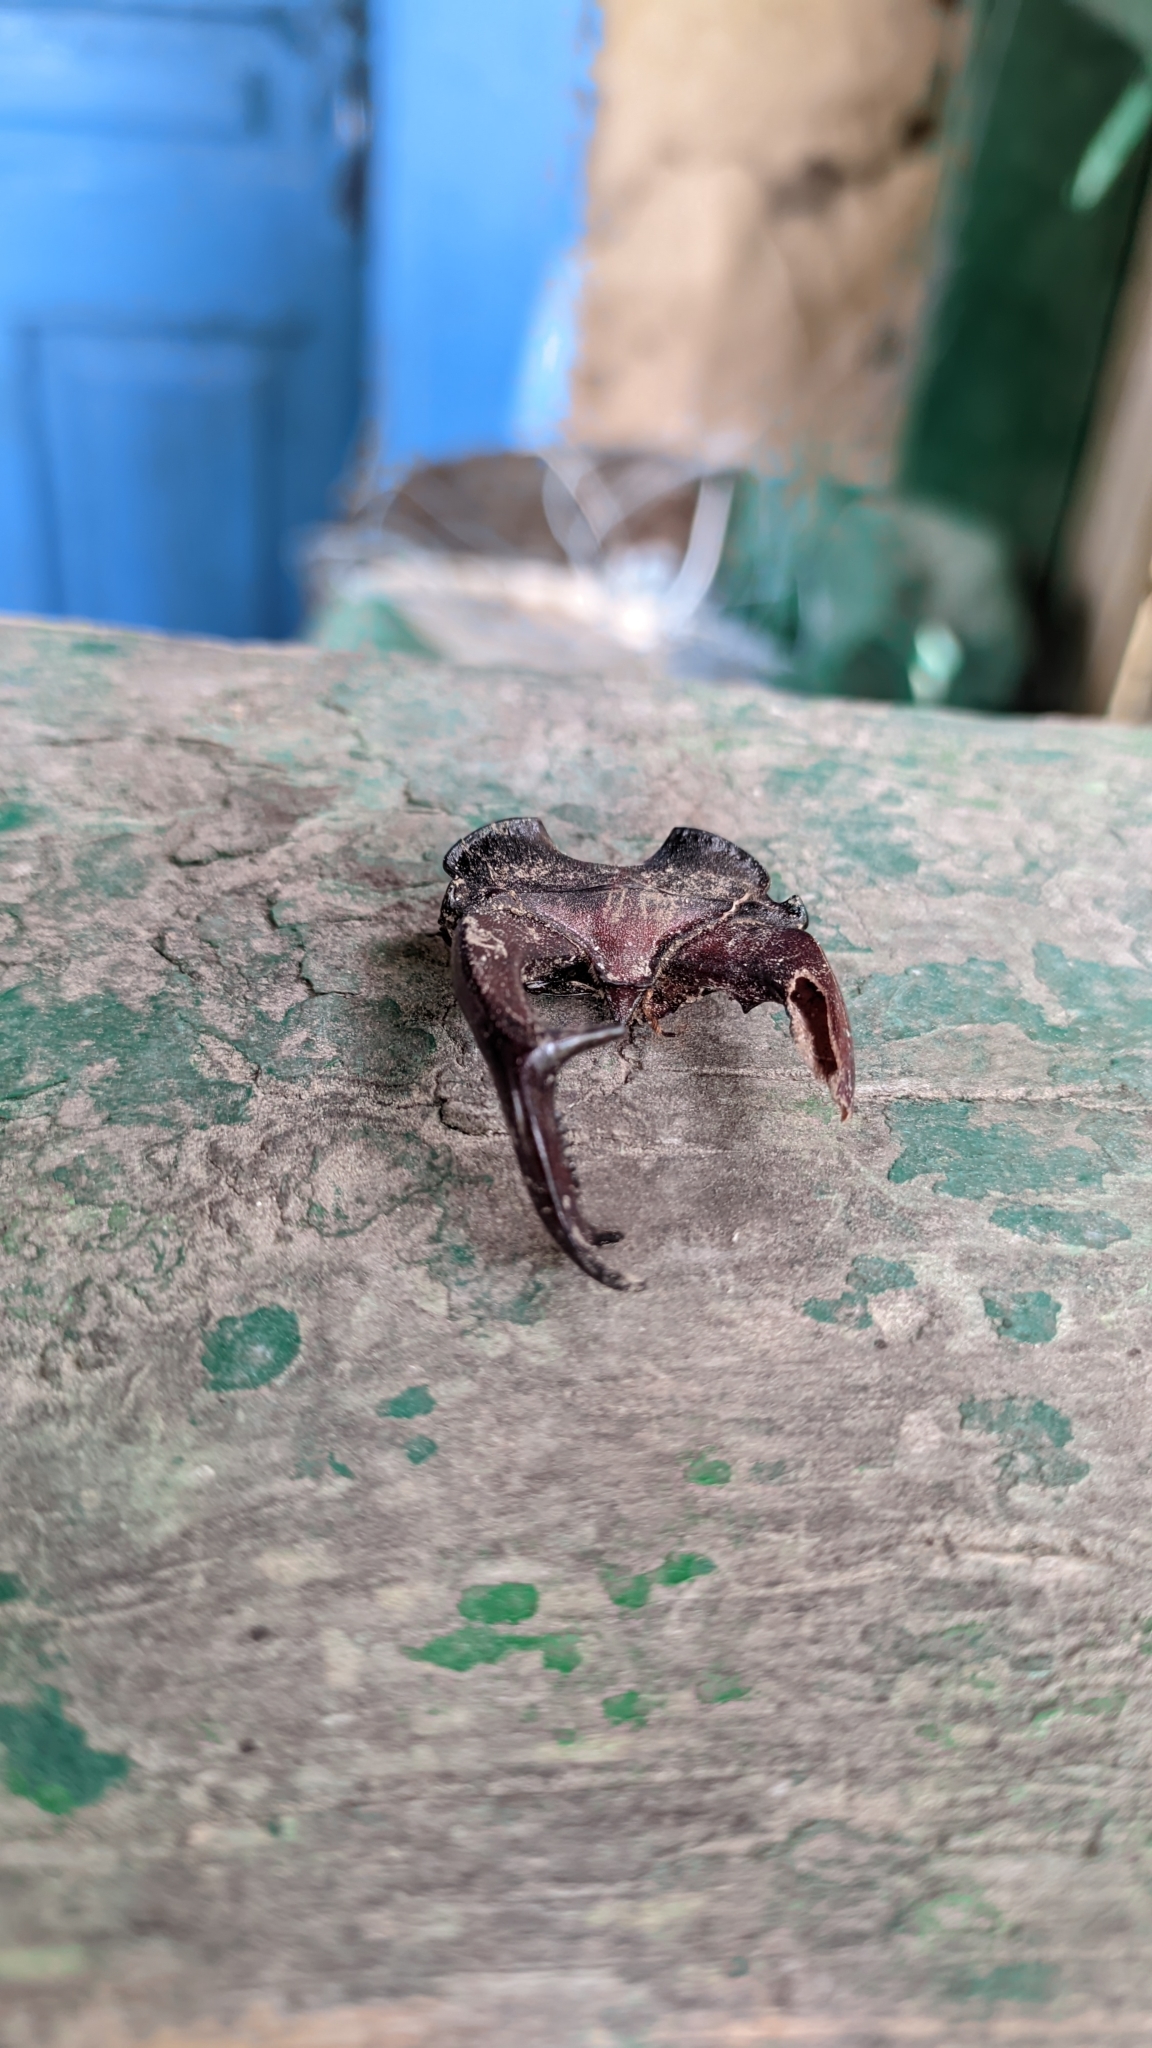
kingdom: Animalia
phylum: Arthropoda
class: Insecta
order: Coleoptera
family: Lucanidae
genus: Lucanus
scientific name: Lucanus cervus
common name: Stag beetle
